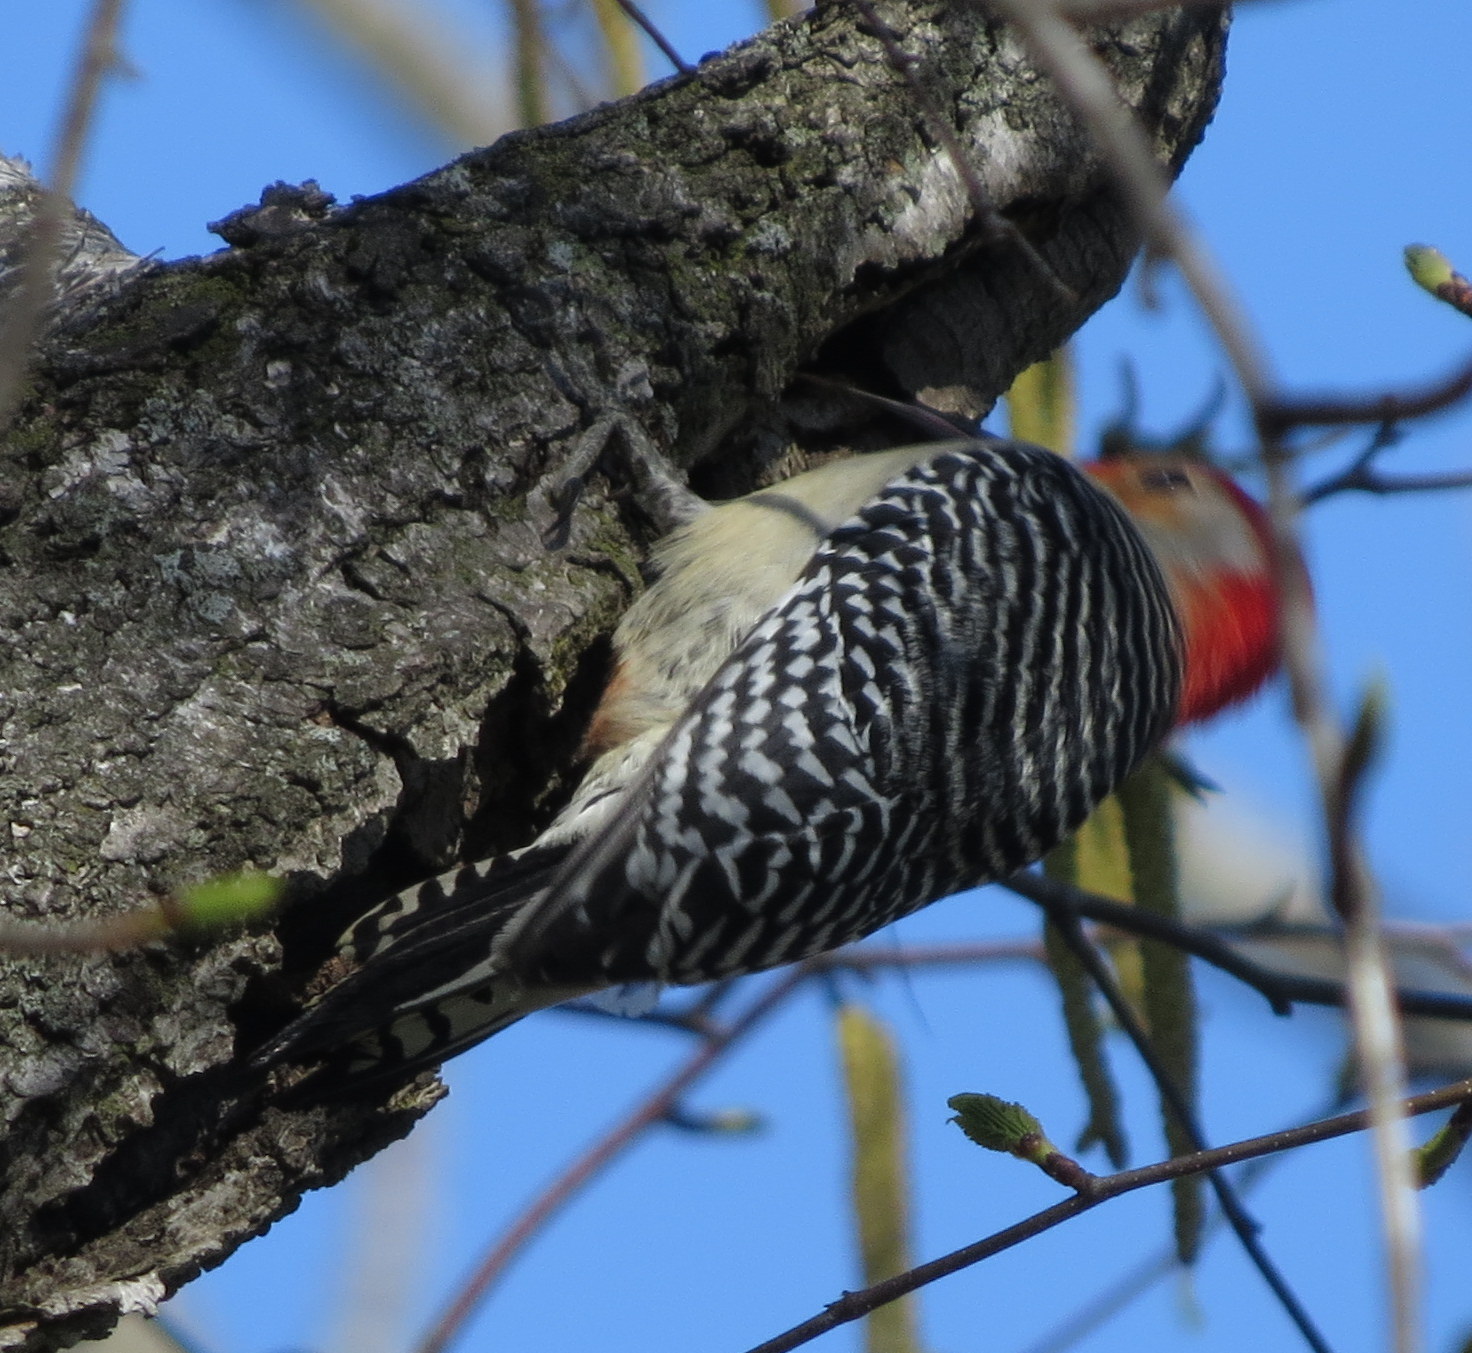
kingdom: Animalia
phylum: Chordata
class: Aves
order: Piciformes
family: Picidae
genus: Melanerpes
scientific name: Melanerpes carolinus
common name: Red-bellied woodpecker
